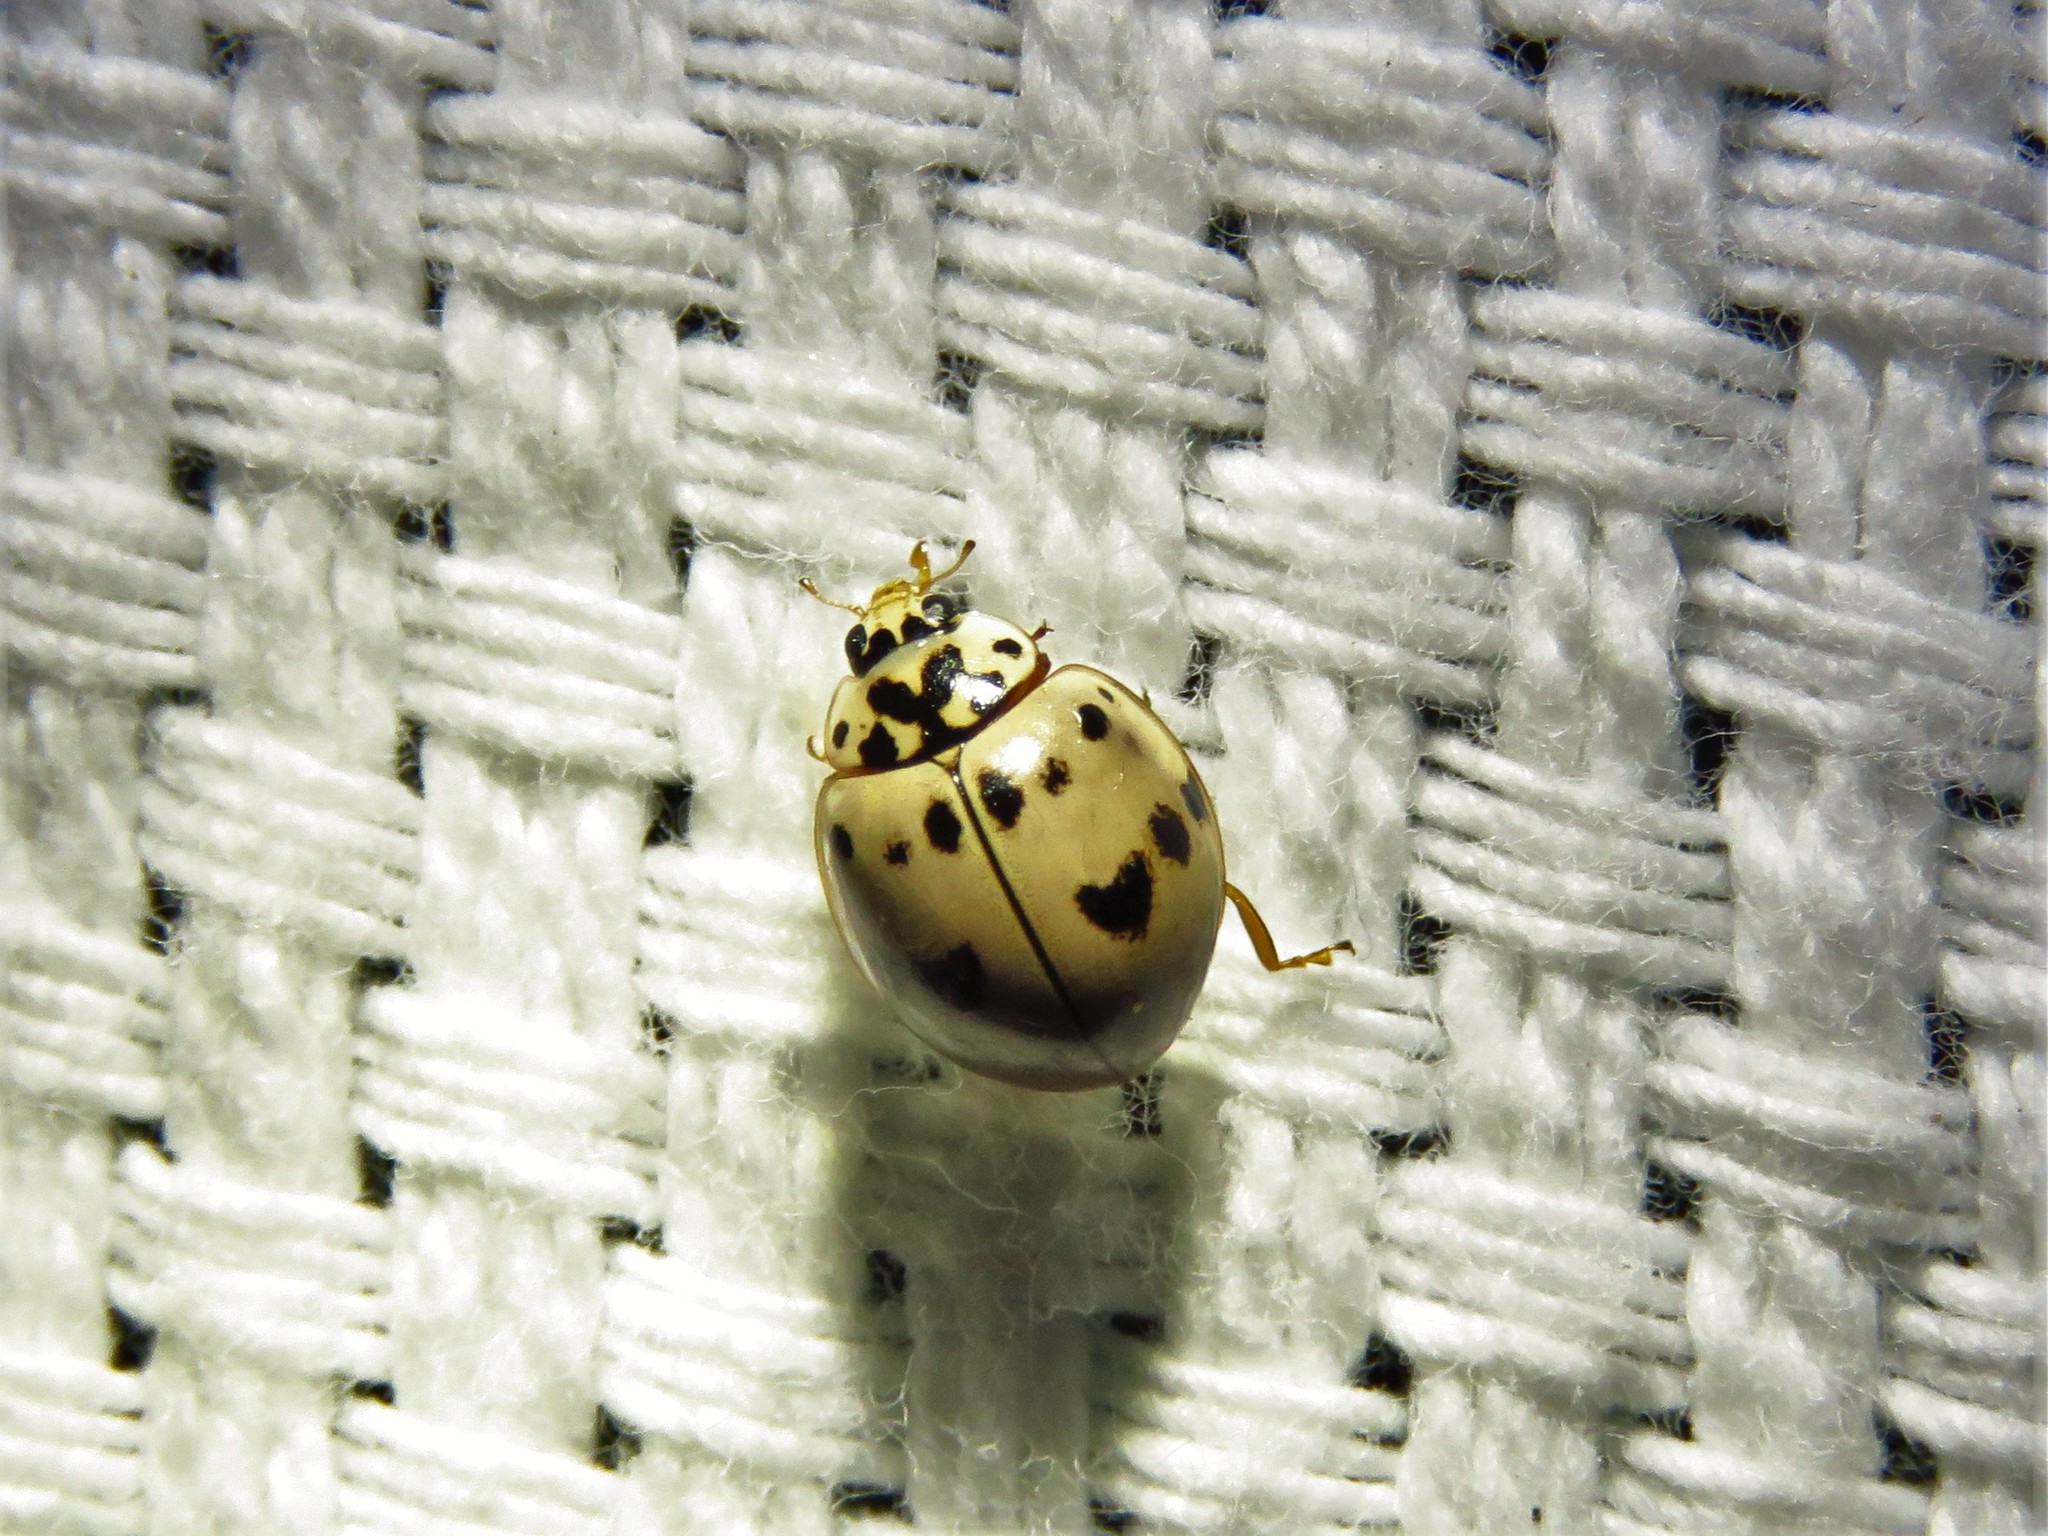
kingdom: Animalia
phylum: Arthropoda
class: Insecta
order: Coleoptera
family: Coccinellidae
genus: Olla
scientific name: Olla v-nigrum
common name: Ashy gray lady beetle
